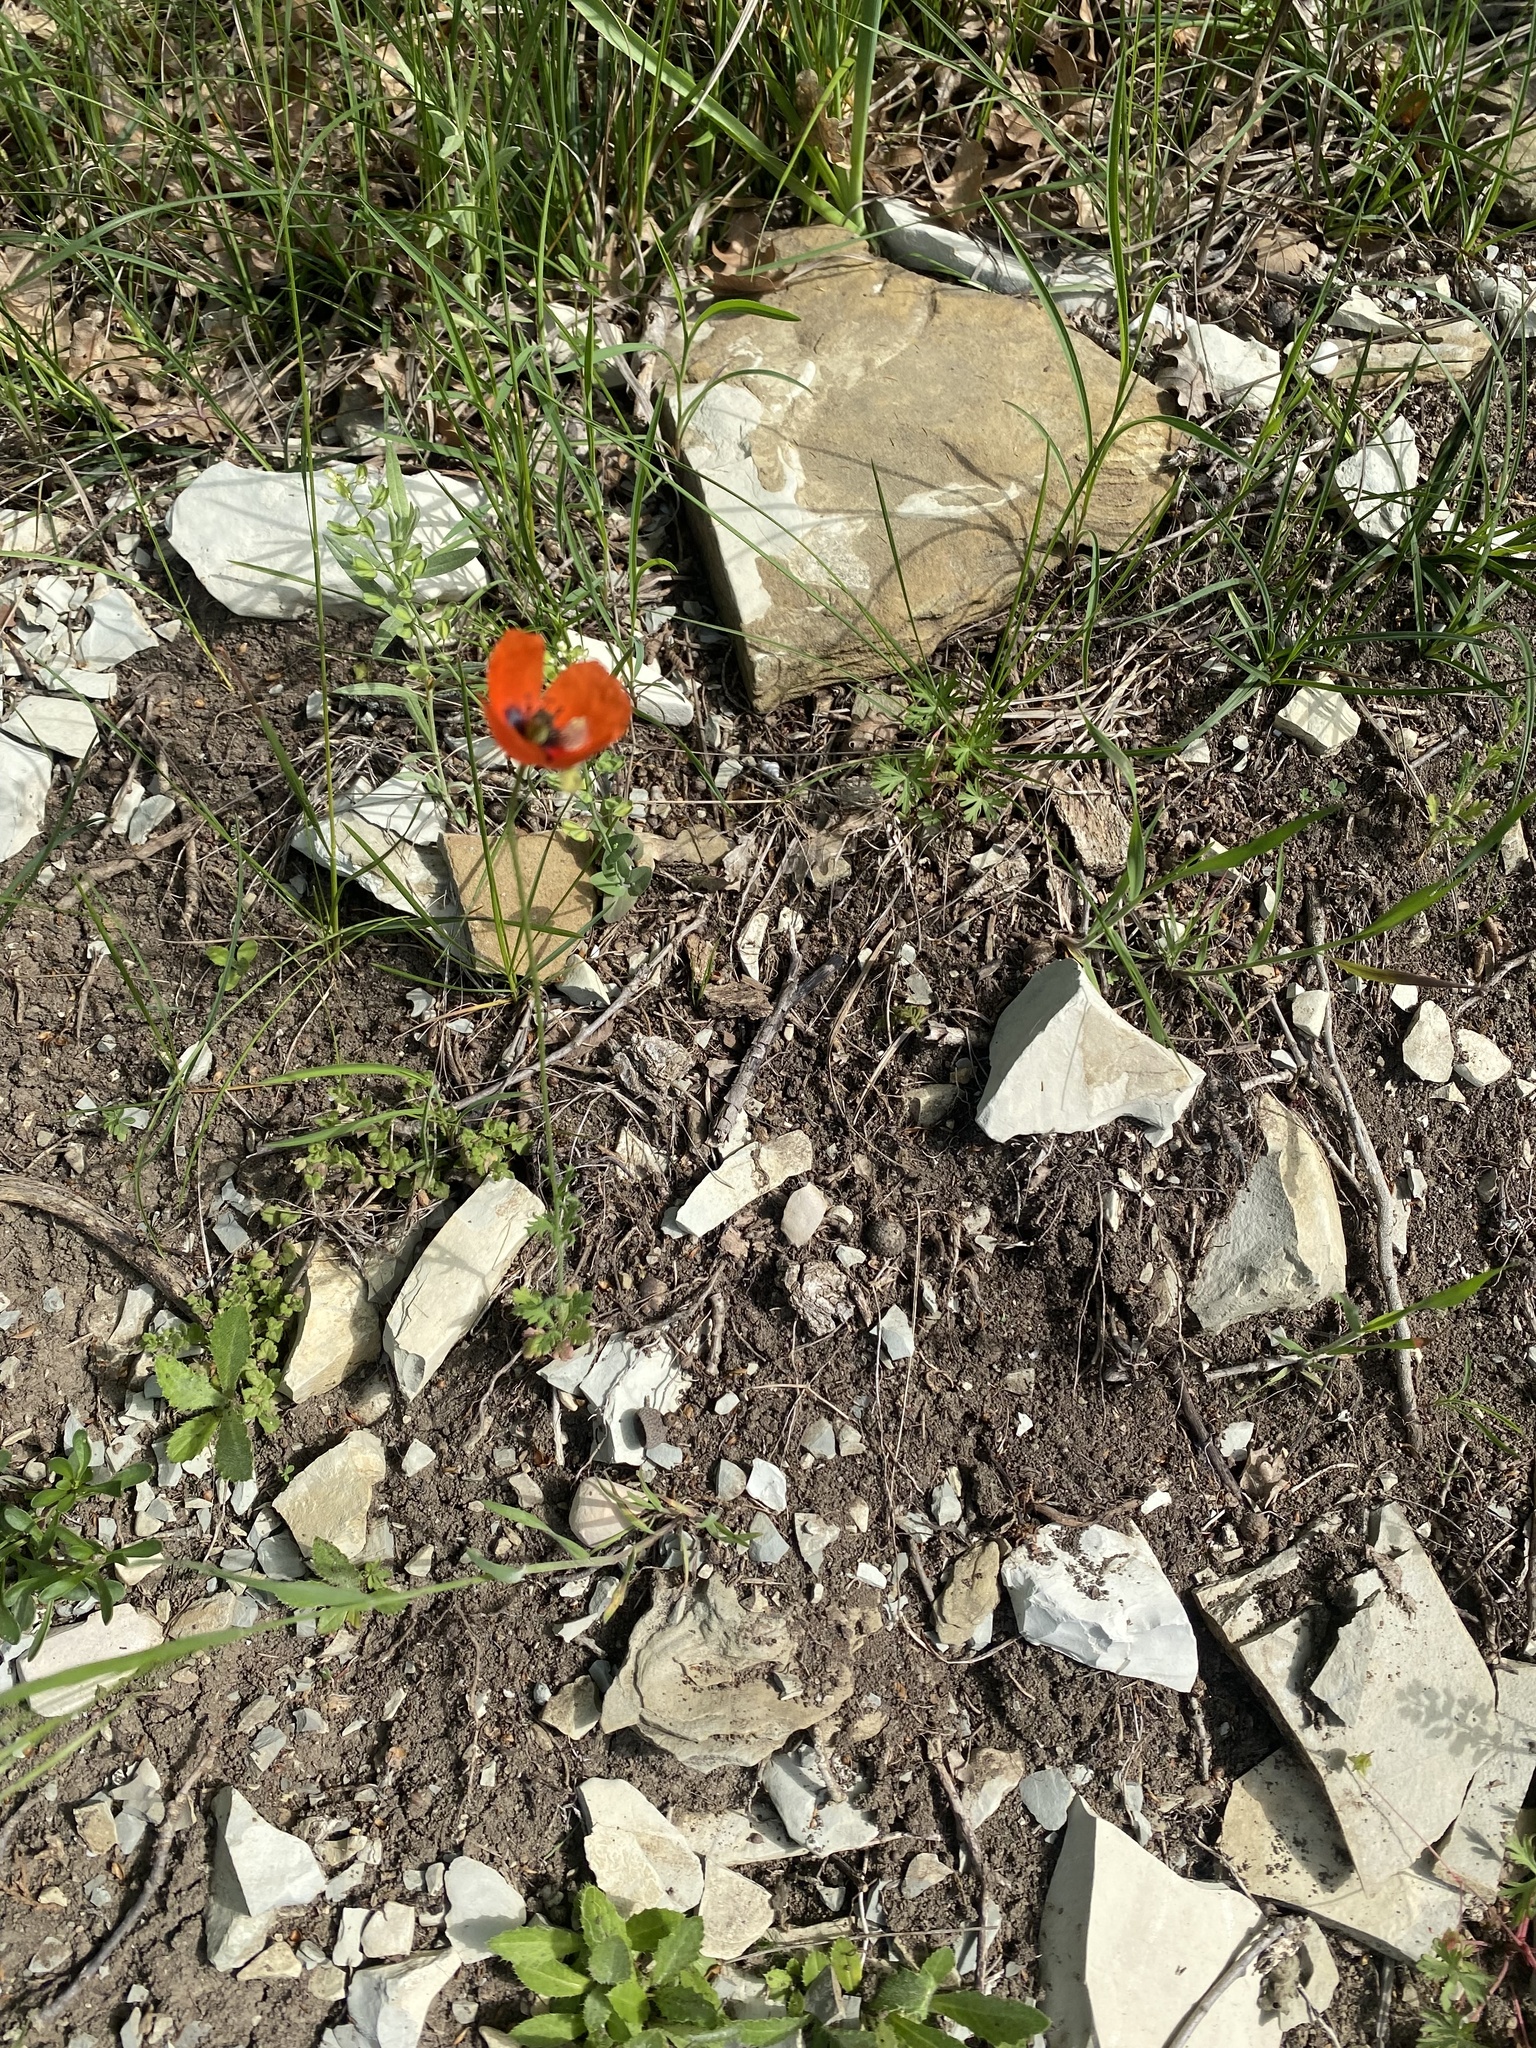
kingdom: Plantae
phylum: Tracheophyta
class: Magnoliopsida
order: Ranunculales
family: Papaveraceae
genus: Papaver
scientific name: Papaver dubium
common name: Long-headed poppy
